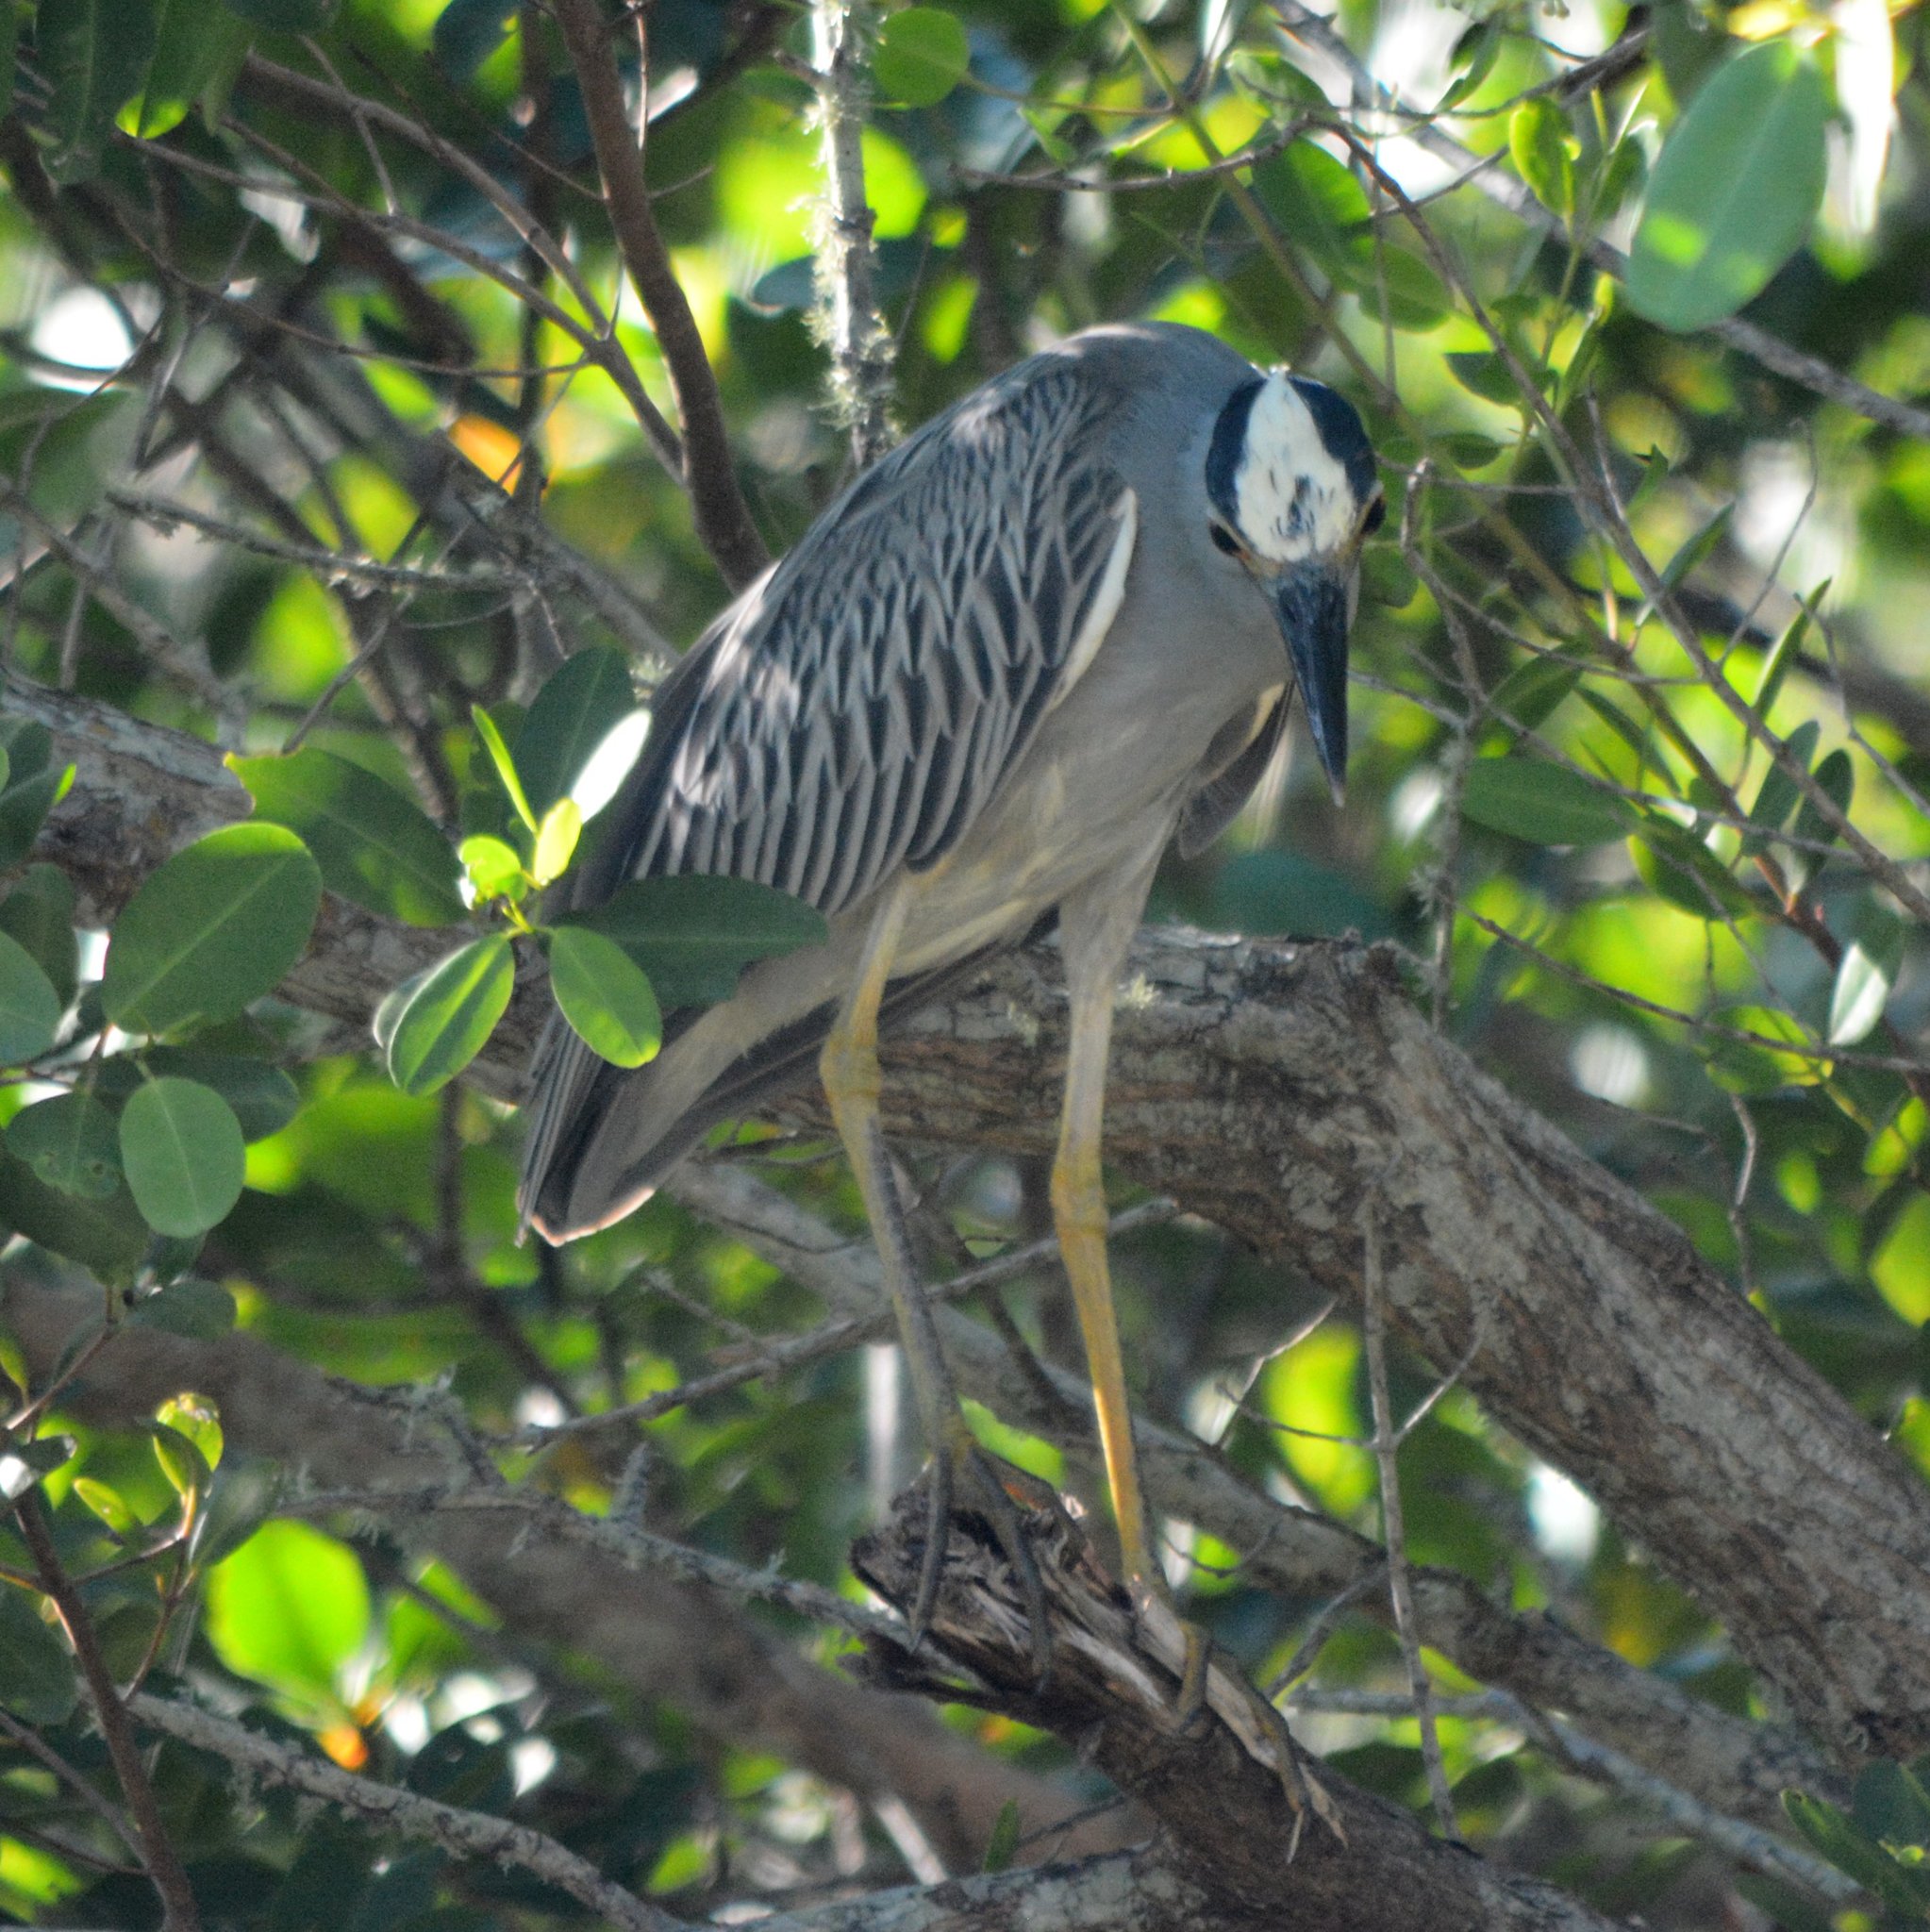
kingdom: Animalia
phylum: Chordata
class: Aves
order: Pelecaniformes
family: Ardeidae
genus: Nyctanassa
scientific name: Nyctanassa violacea
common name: Yellow-crowned night heron
